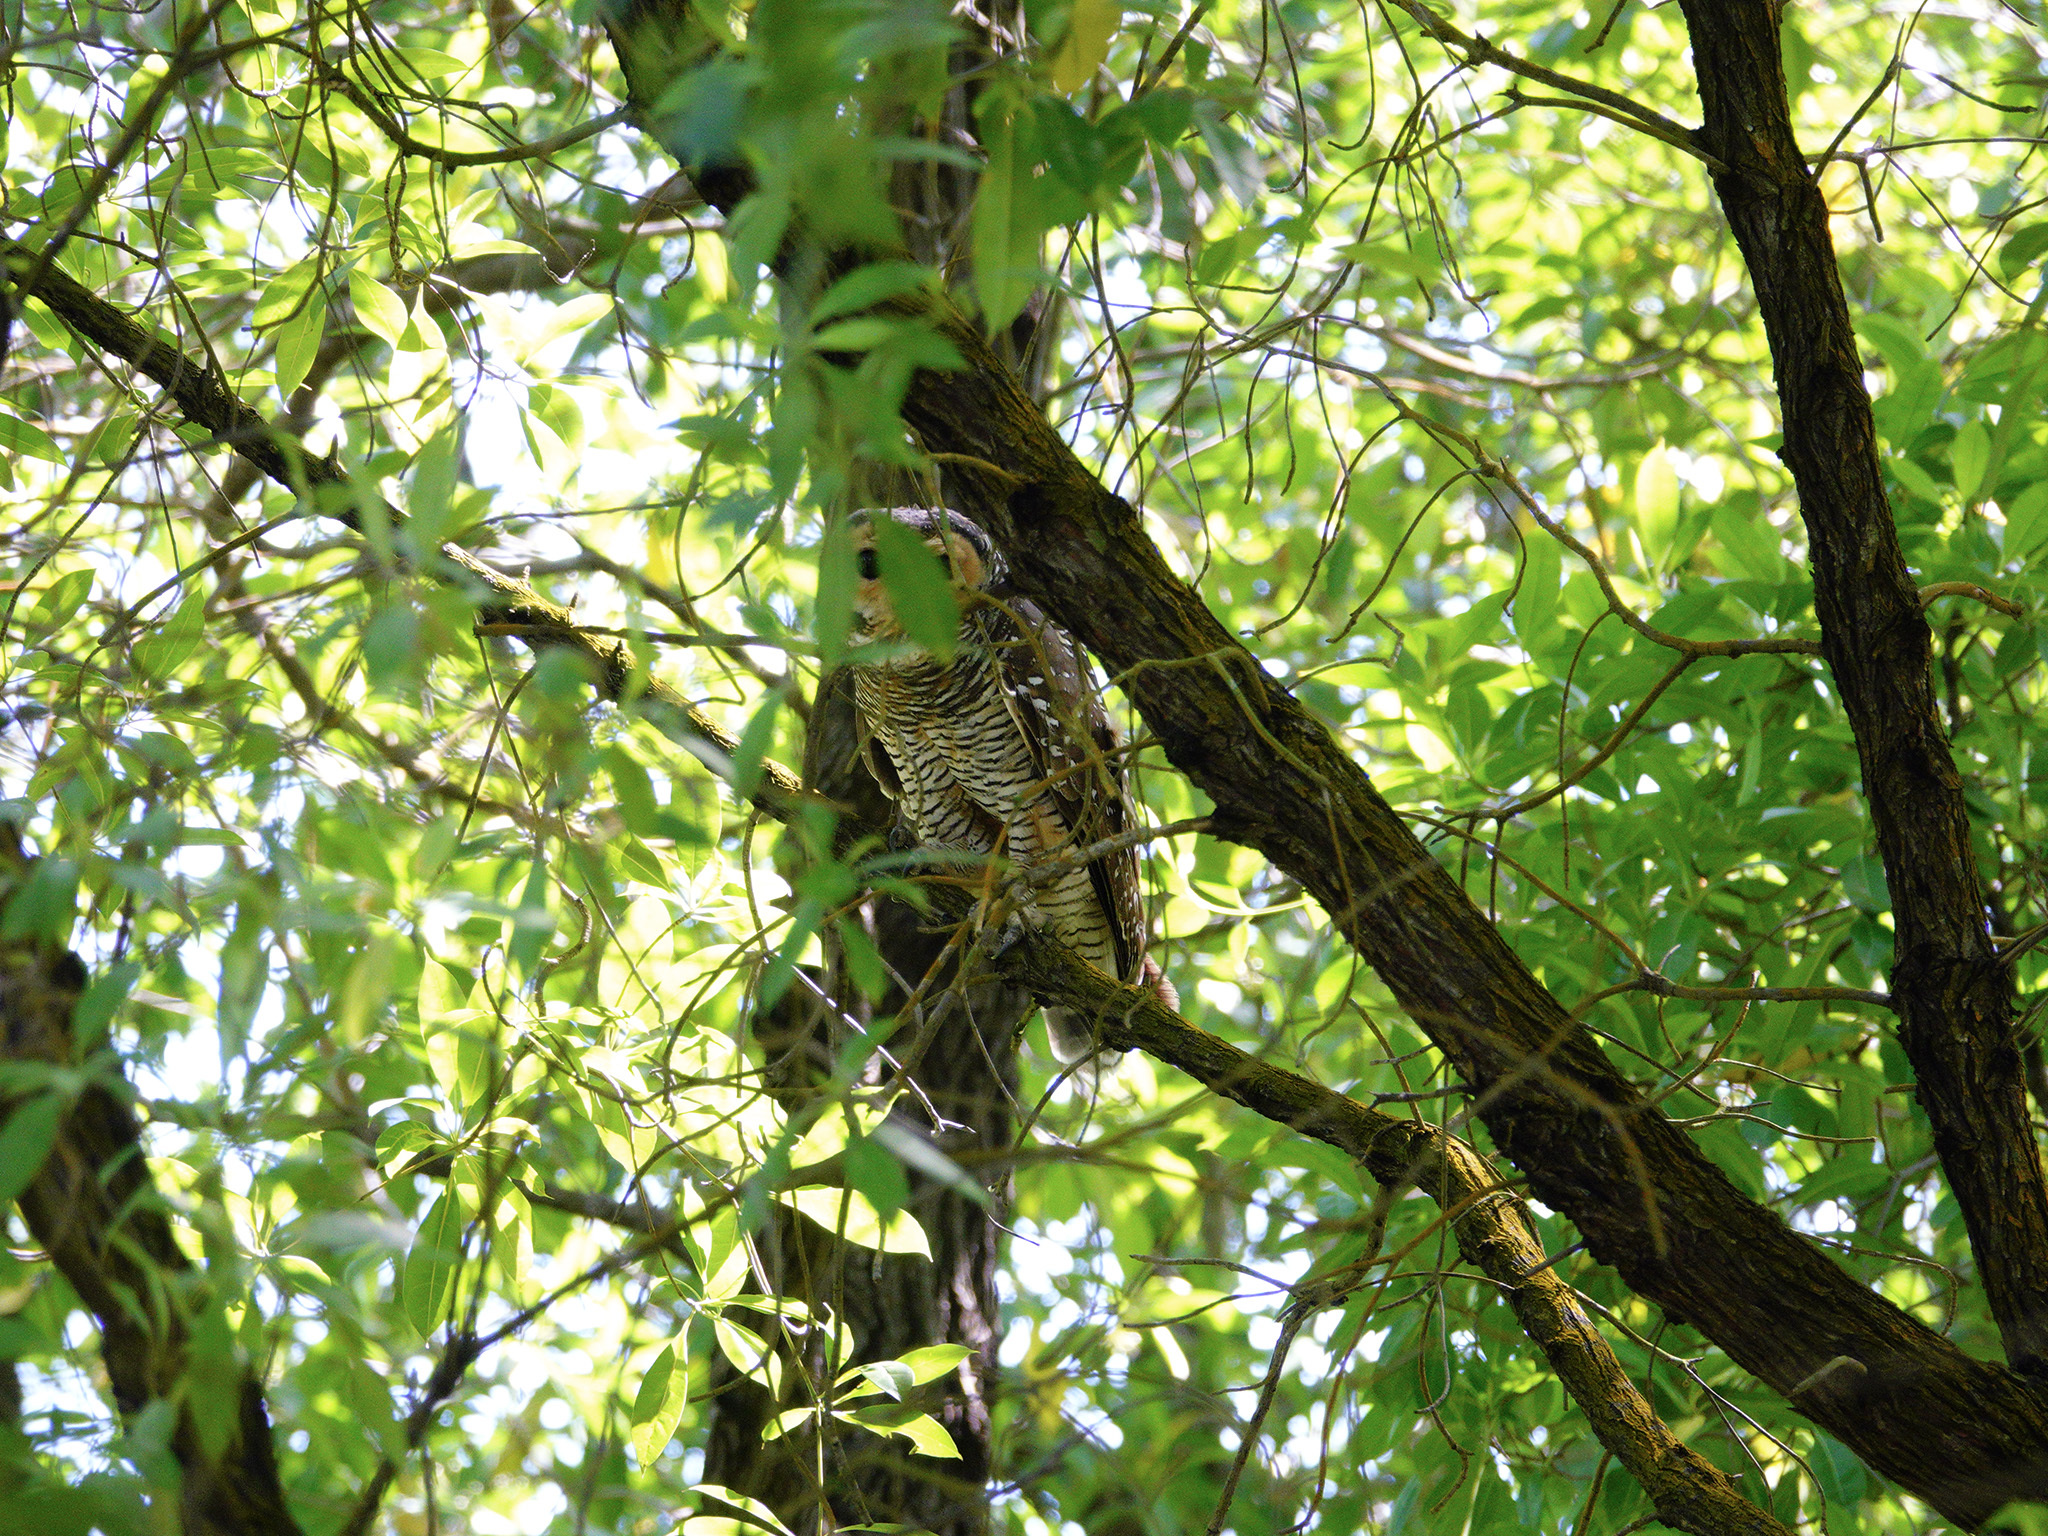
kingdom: Animalia
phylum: Chordata
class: Aves
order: Strigiformes
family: Strigidae
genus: Strix
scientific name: Strix seloputo
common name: Spotted wood owl
